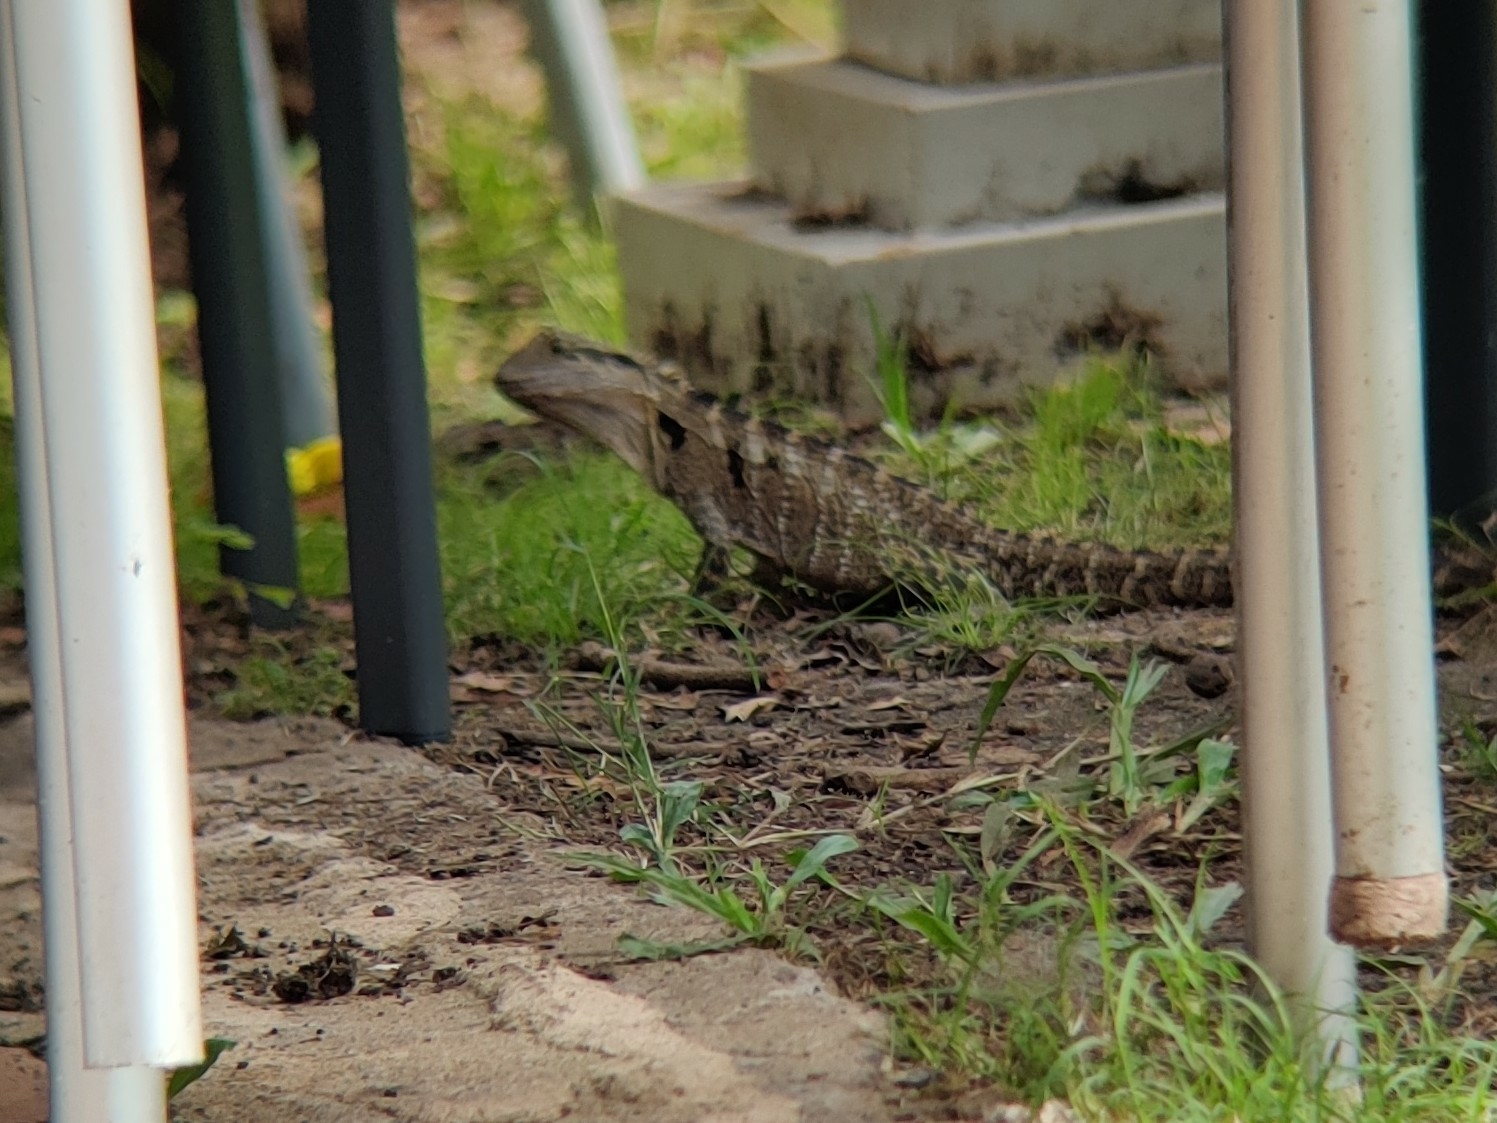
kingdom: Animalia
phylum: Chordata
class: Squamata
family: Agamidae
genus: Intellagama
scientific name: Intellagama lesueurii
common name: Eastern water dragon
